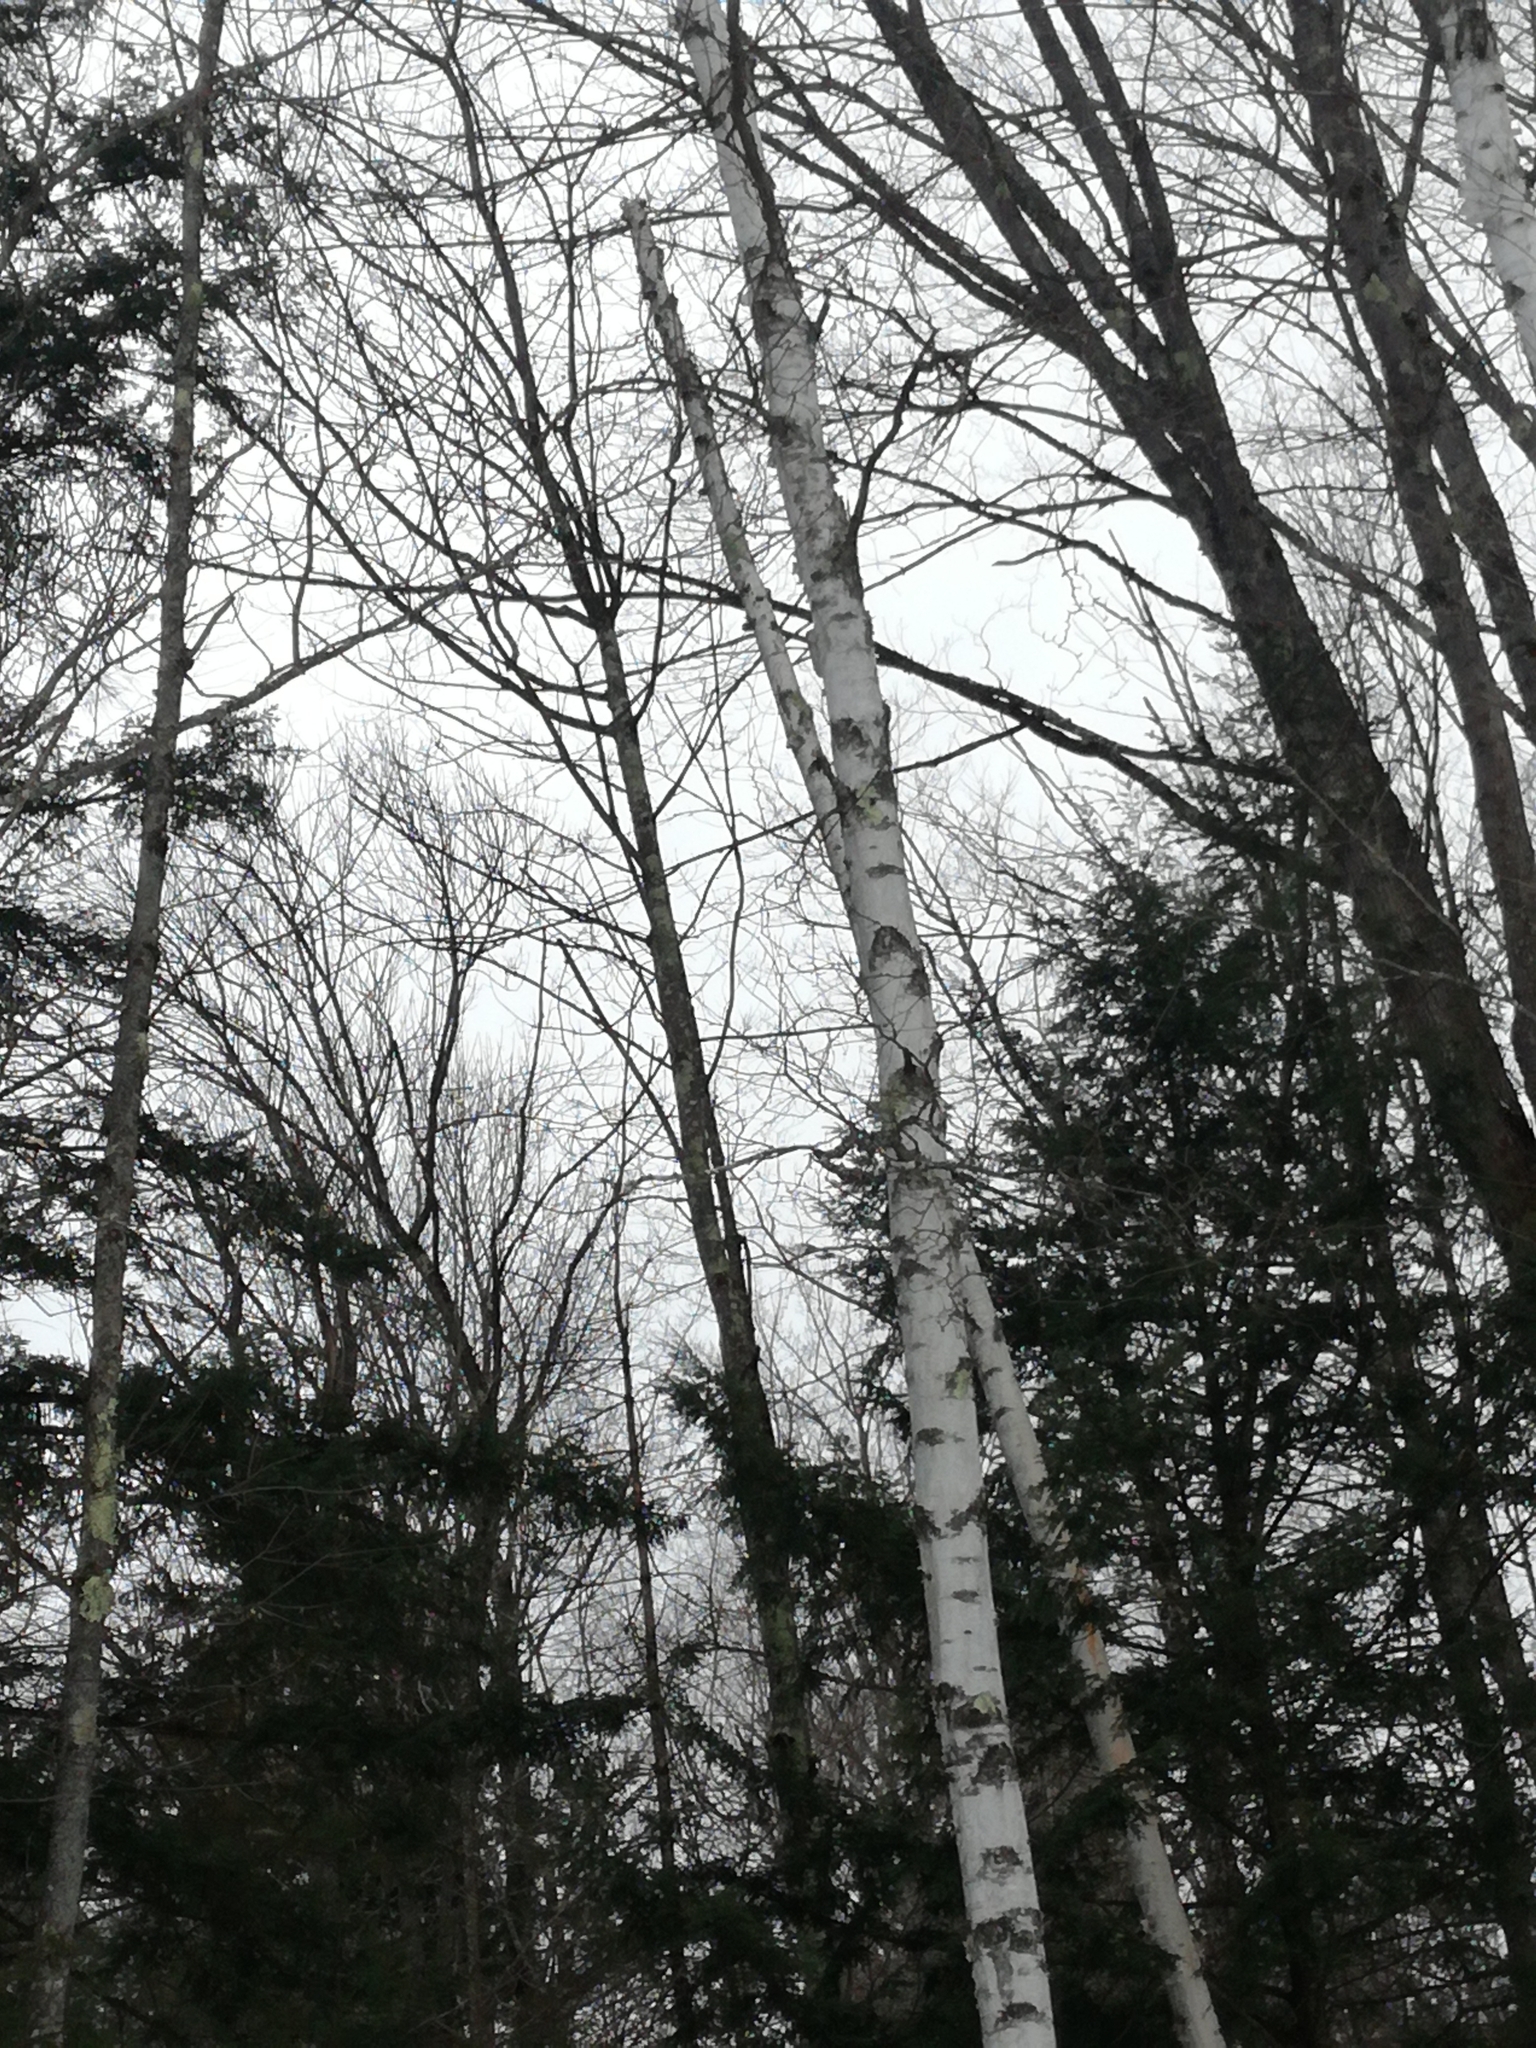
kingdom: Plantae
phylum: Tracheophyta
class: Magnoliopsida
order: Fagales
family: Betulaceae
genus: Betula
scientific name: Betula papyrifera
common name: Paper birch
